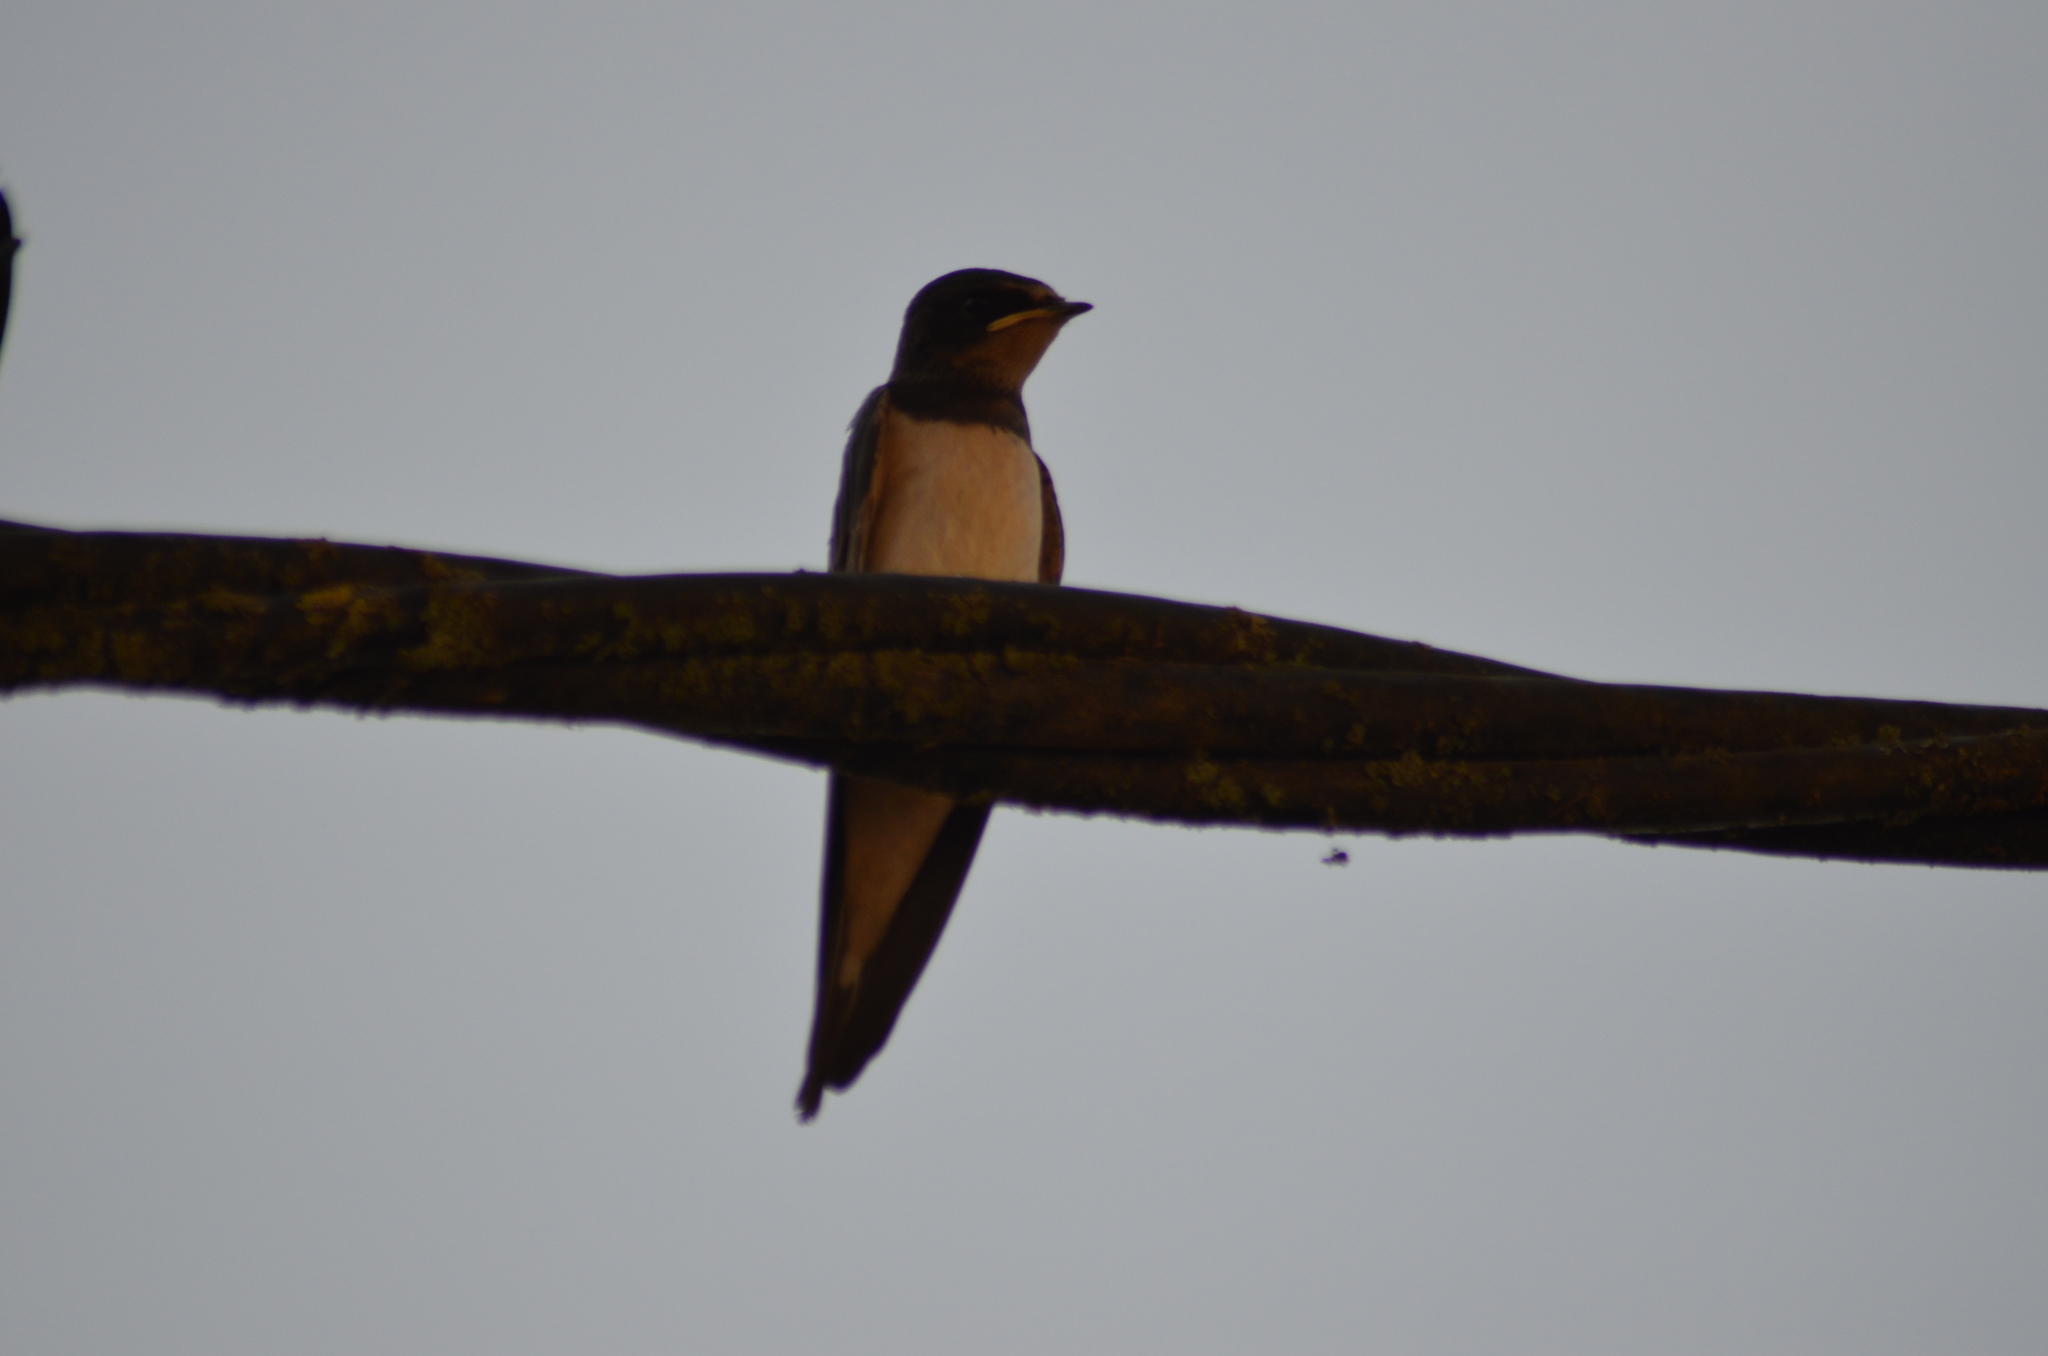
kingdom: Animalia
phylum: Chordata
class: Aves
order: Passeriformes
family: Hirundinidae
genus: Hirundo
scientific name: Hirundo rustica
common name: Barn swallow
